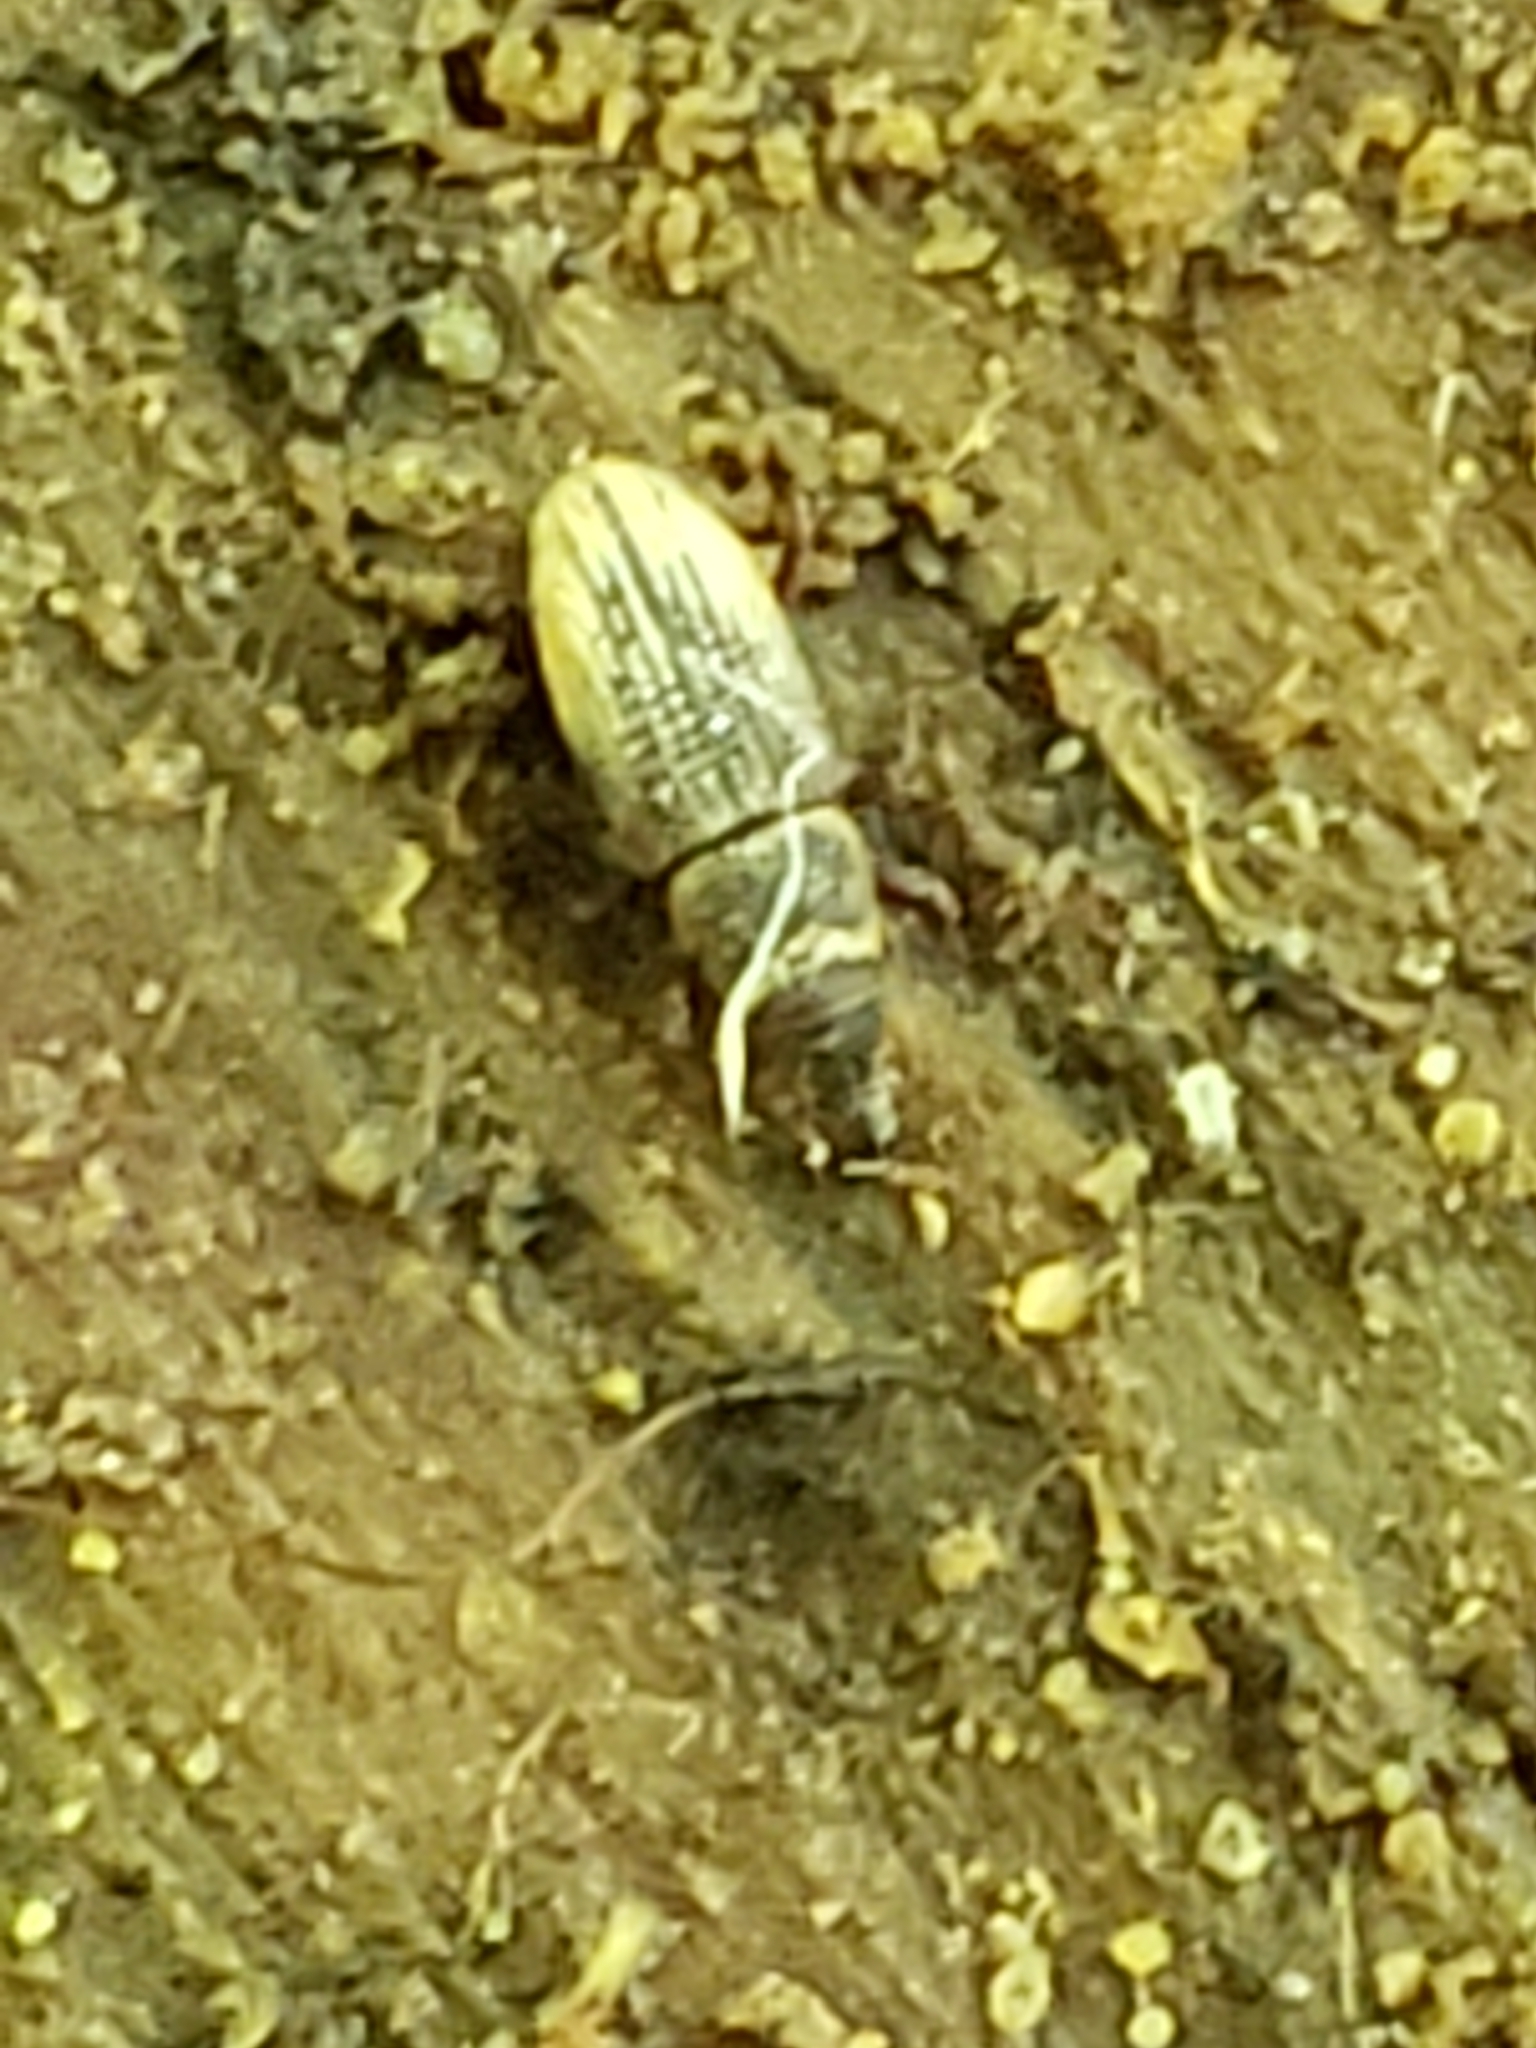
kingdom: Animalia
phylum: Arthropoda
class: Insecta
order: Coleoptera
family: Dryophthoridae
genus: Dryophthorus
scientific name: Dryophthorus americanus
